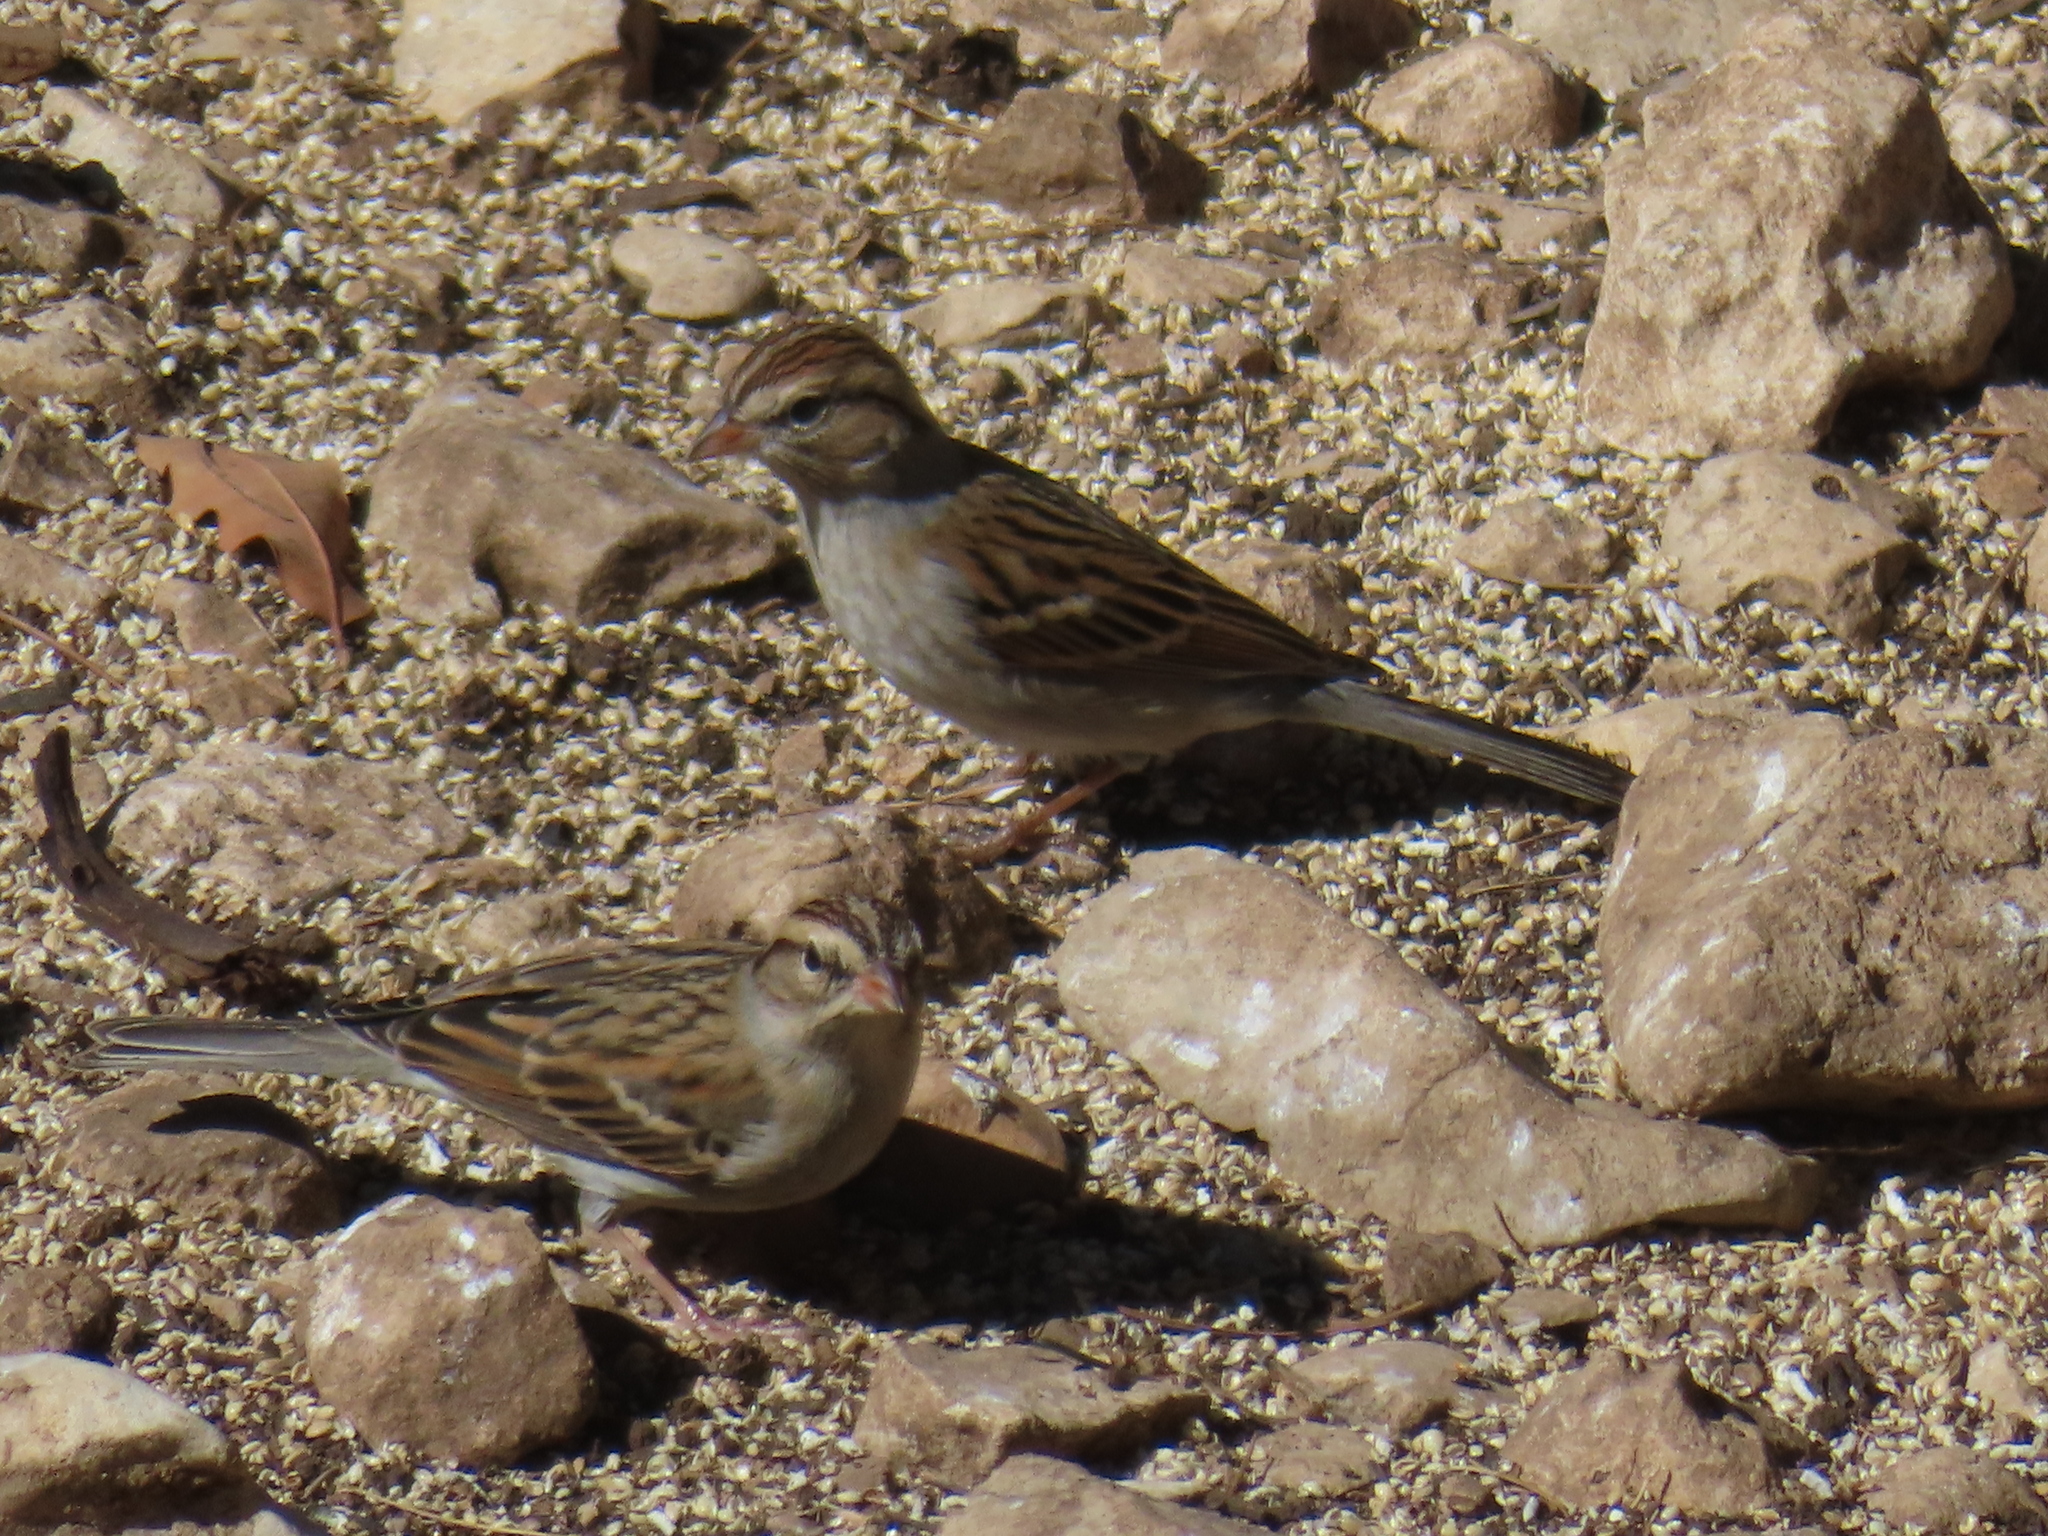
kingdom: Animalia
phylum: Chordata
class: Aves
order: Passeriformes
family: Passerellidae
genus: Spizella
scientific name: Spizella passerina
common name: Chipping sparrow
